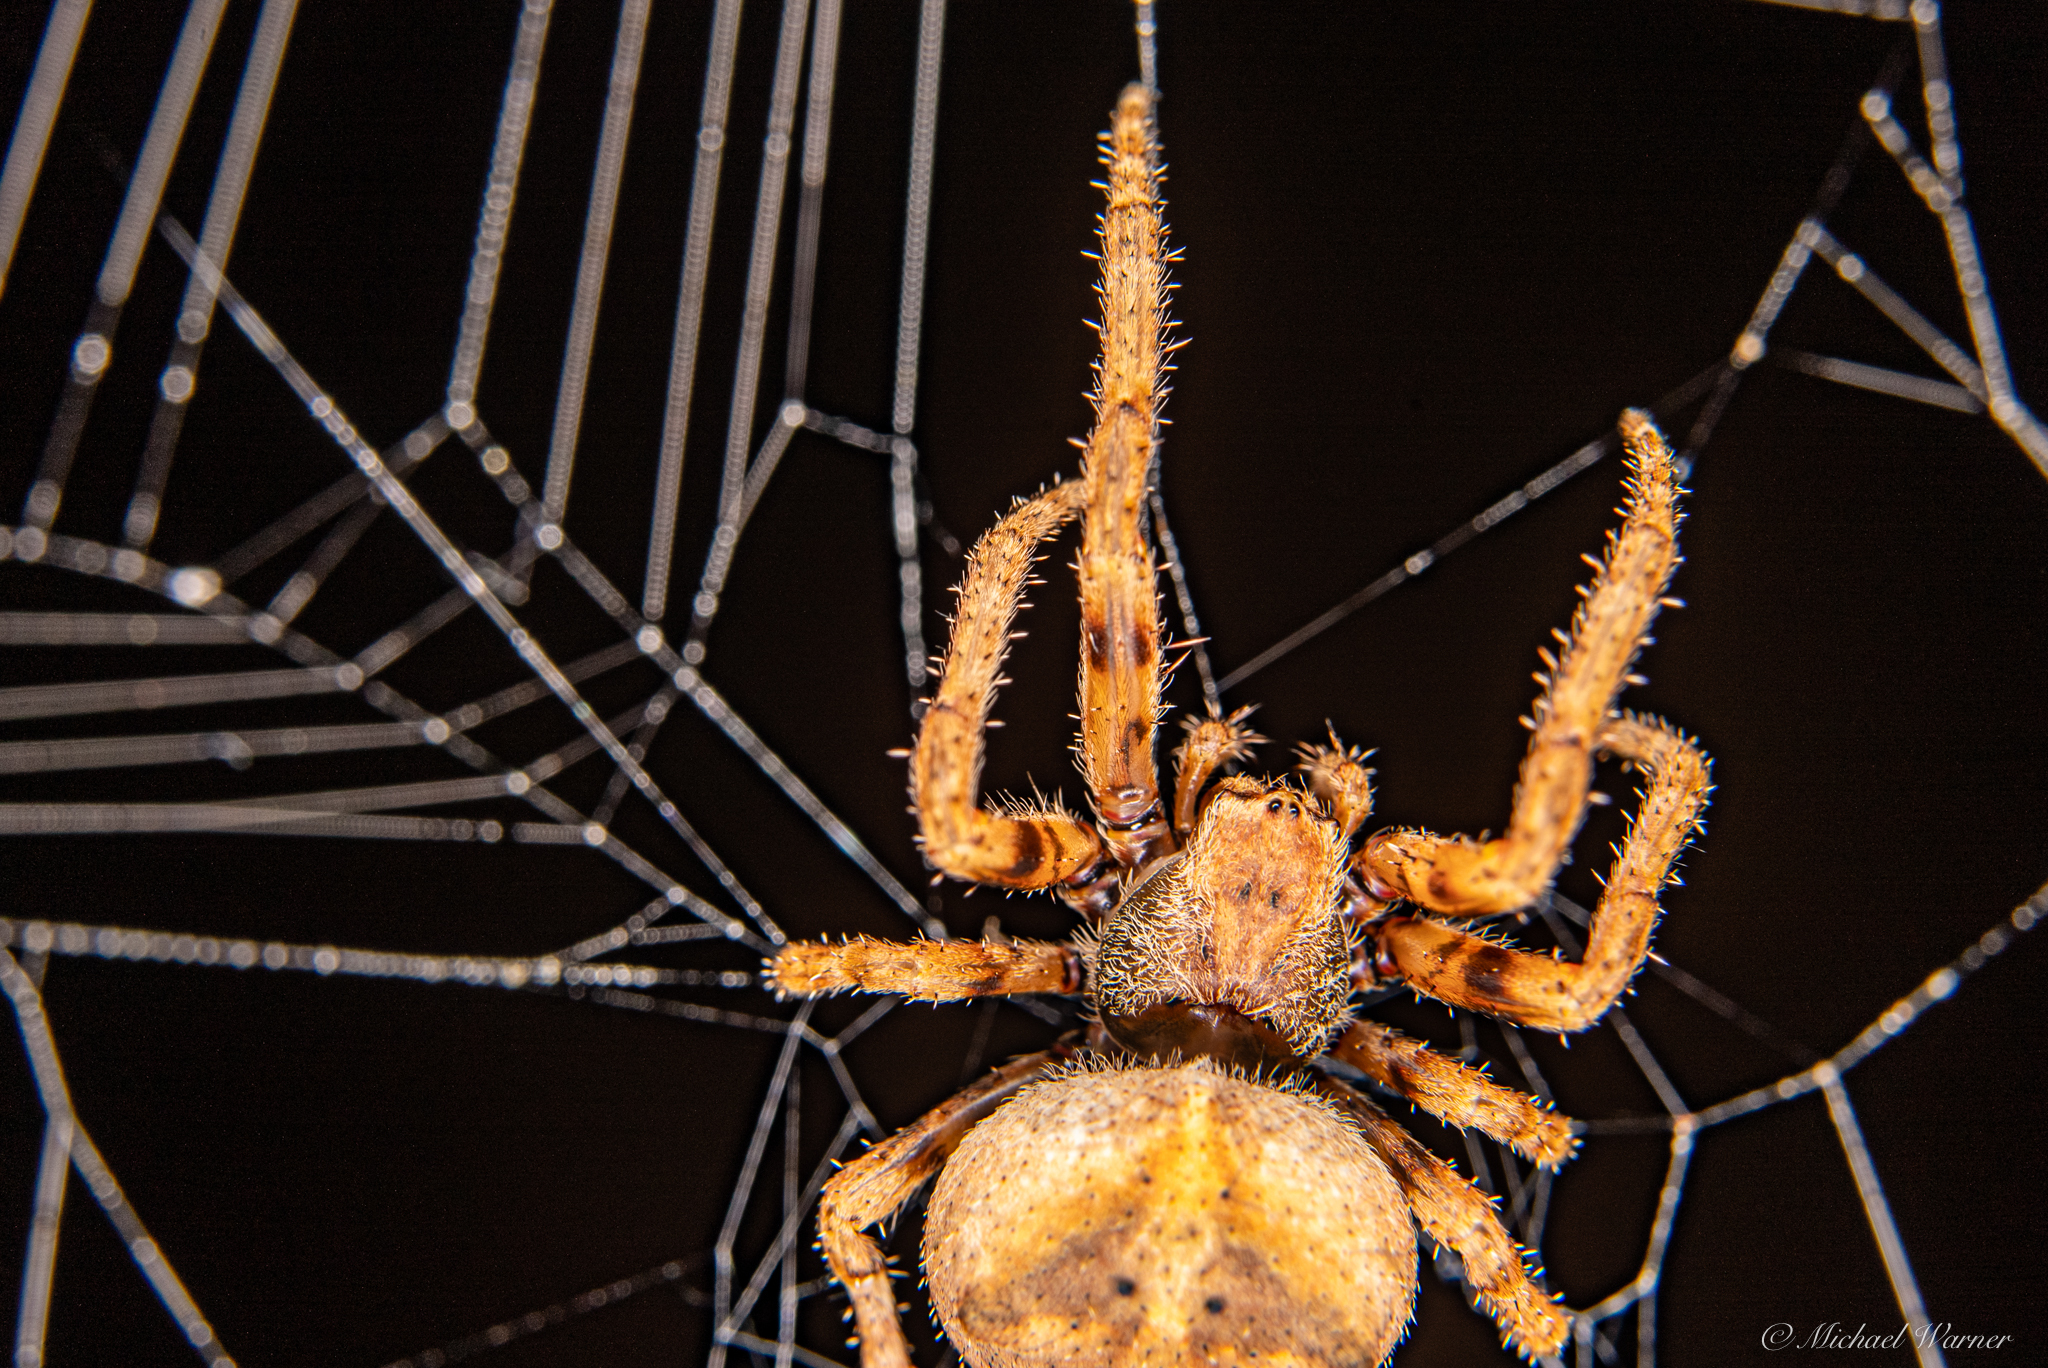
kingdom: Animalia
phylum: Arthropoda
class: Arachnida
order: Araneae
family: Araneidae
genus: Araneus
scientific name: Araneus andrewsi
